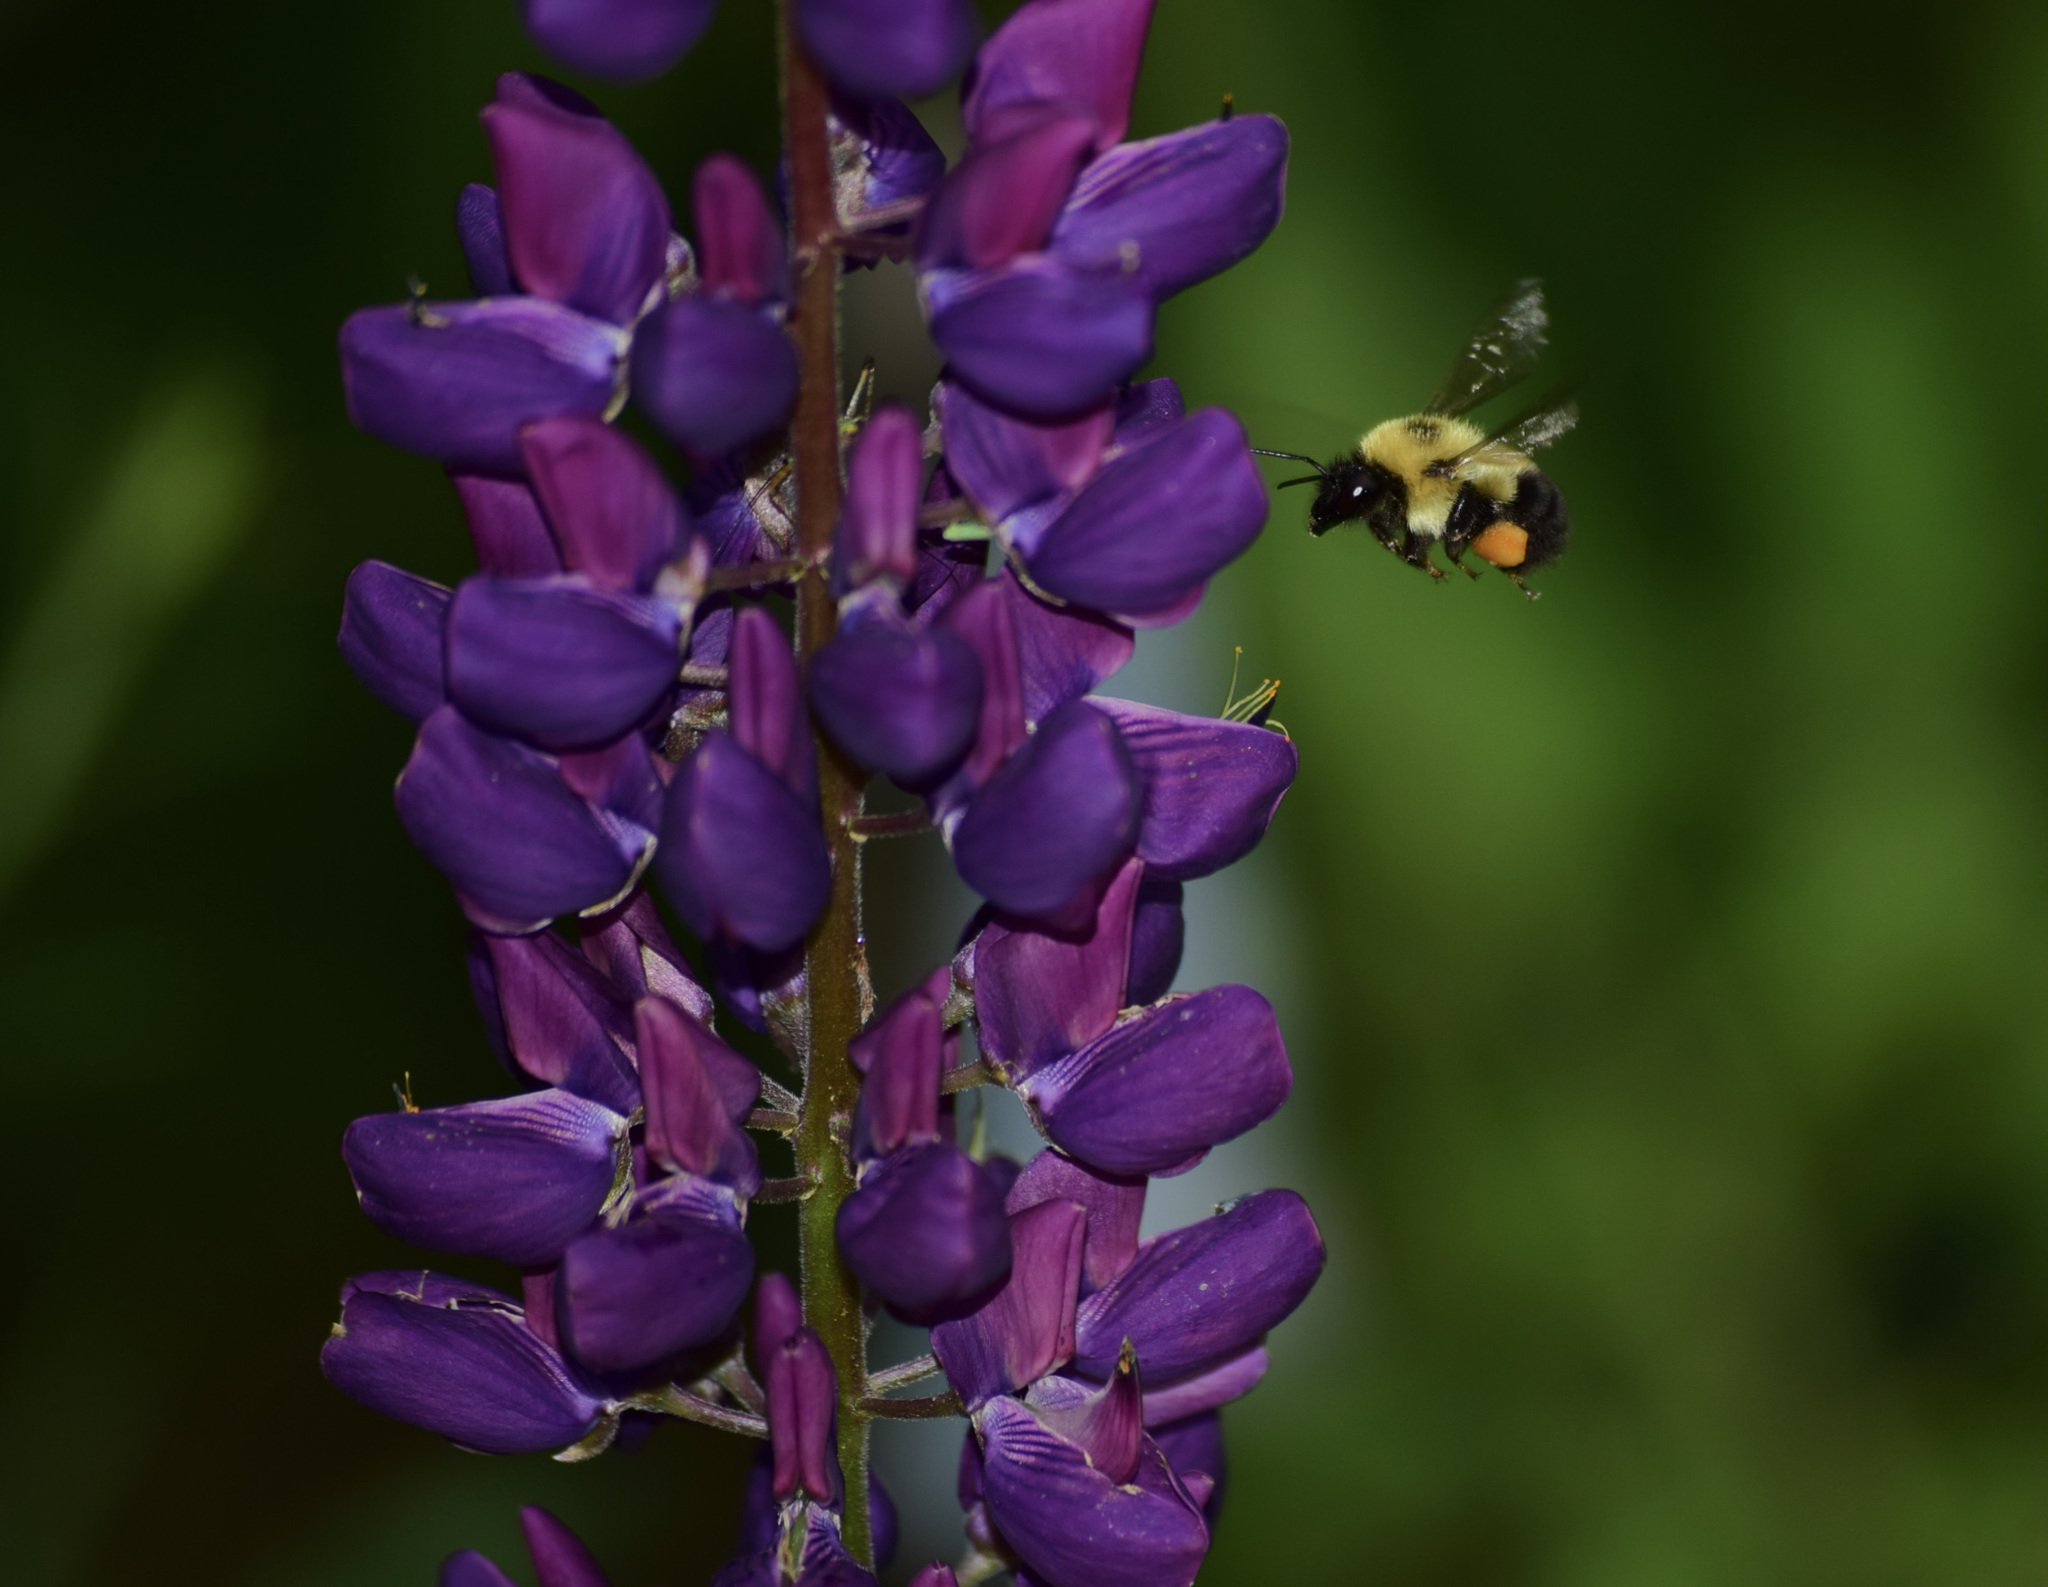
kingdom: Animalia
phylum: Arthropoda
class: Insecta
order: Hymenoptera
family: Apidae
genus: Bombus
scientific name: Bombus bimaculatus
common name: Two-spotted bumble bee
